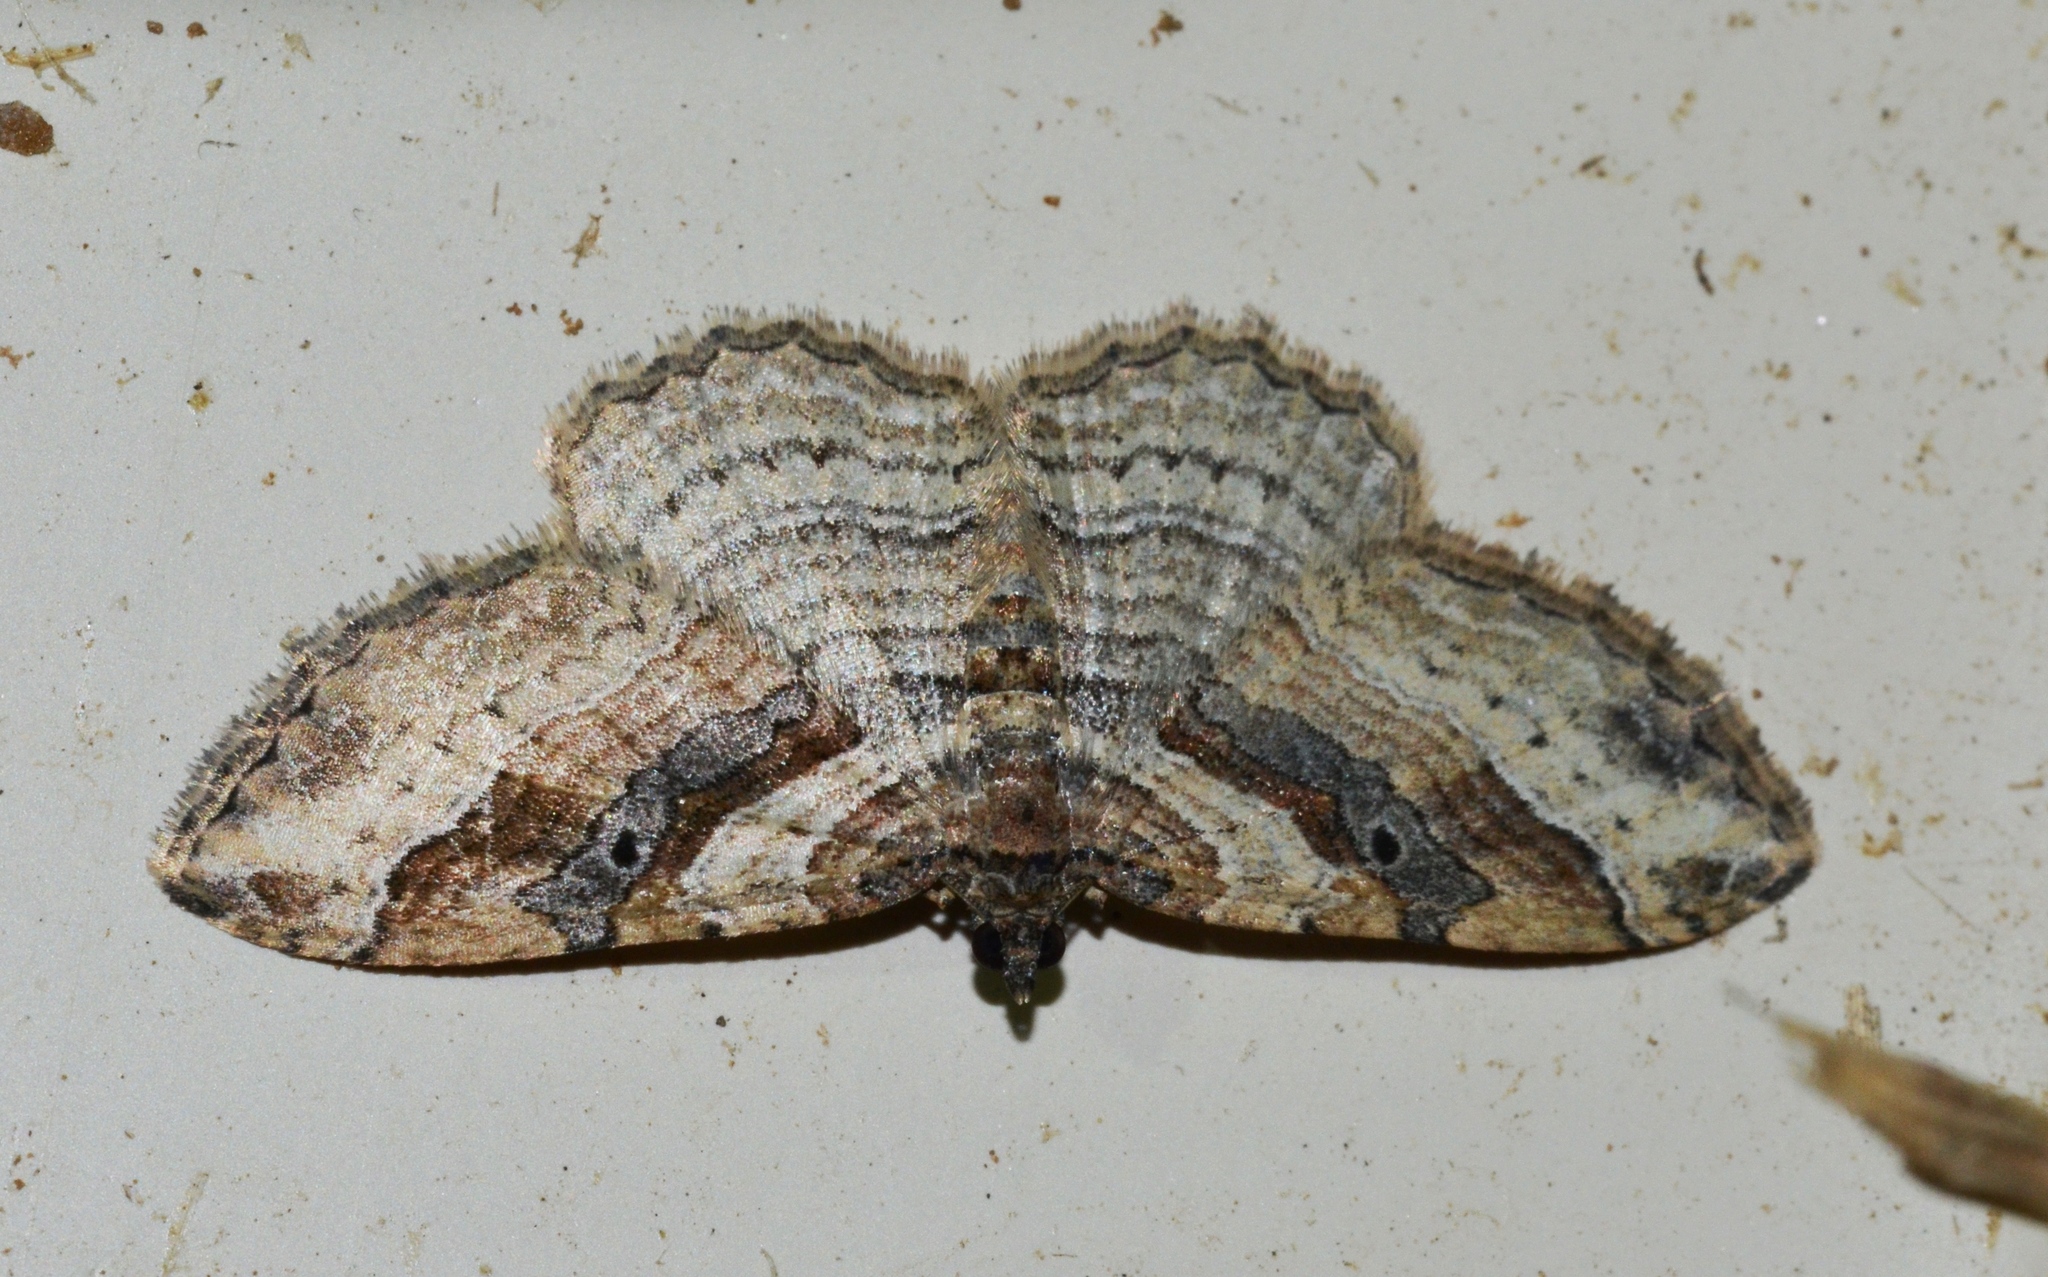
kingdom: Animalia
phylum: Arthropoda
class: Insecta
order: Lepidoptera
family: Geometridae
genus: Costaconvexa
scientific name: Costaconvexa centrostrigaria
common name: Bent-line carpet
